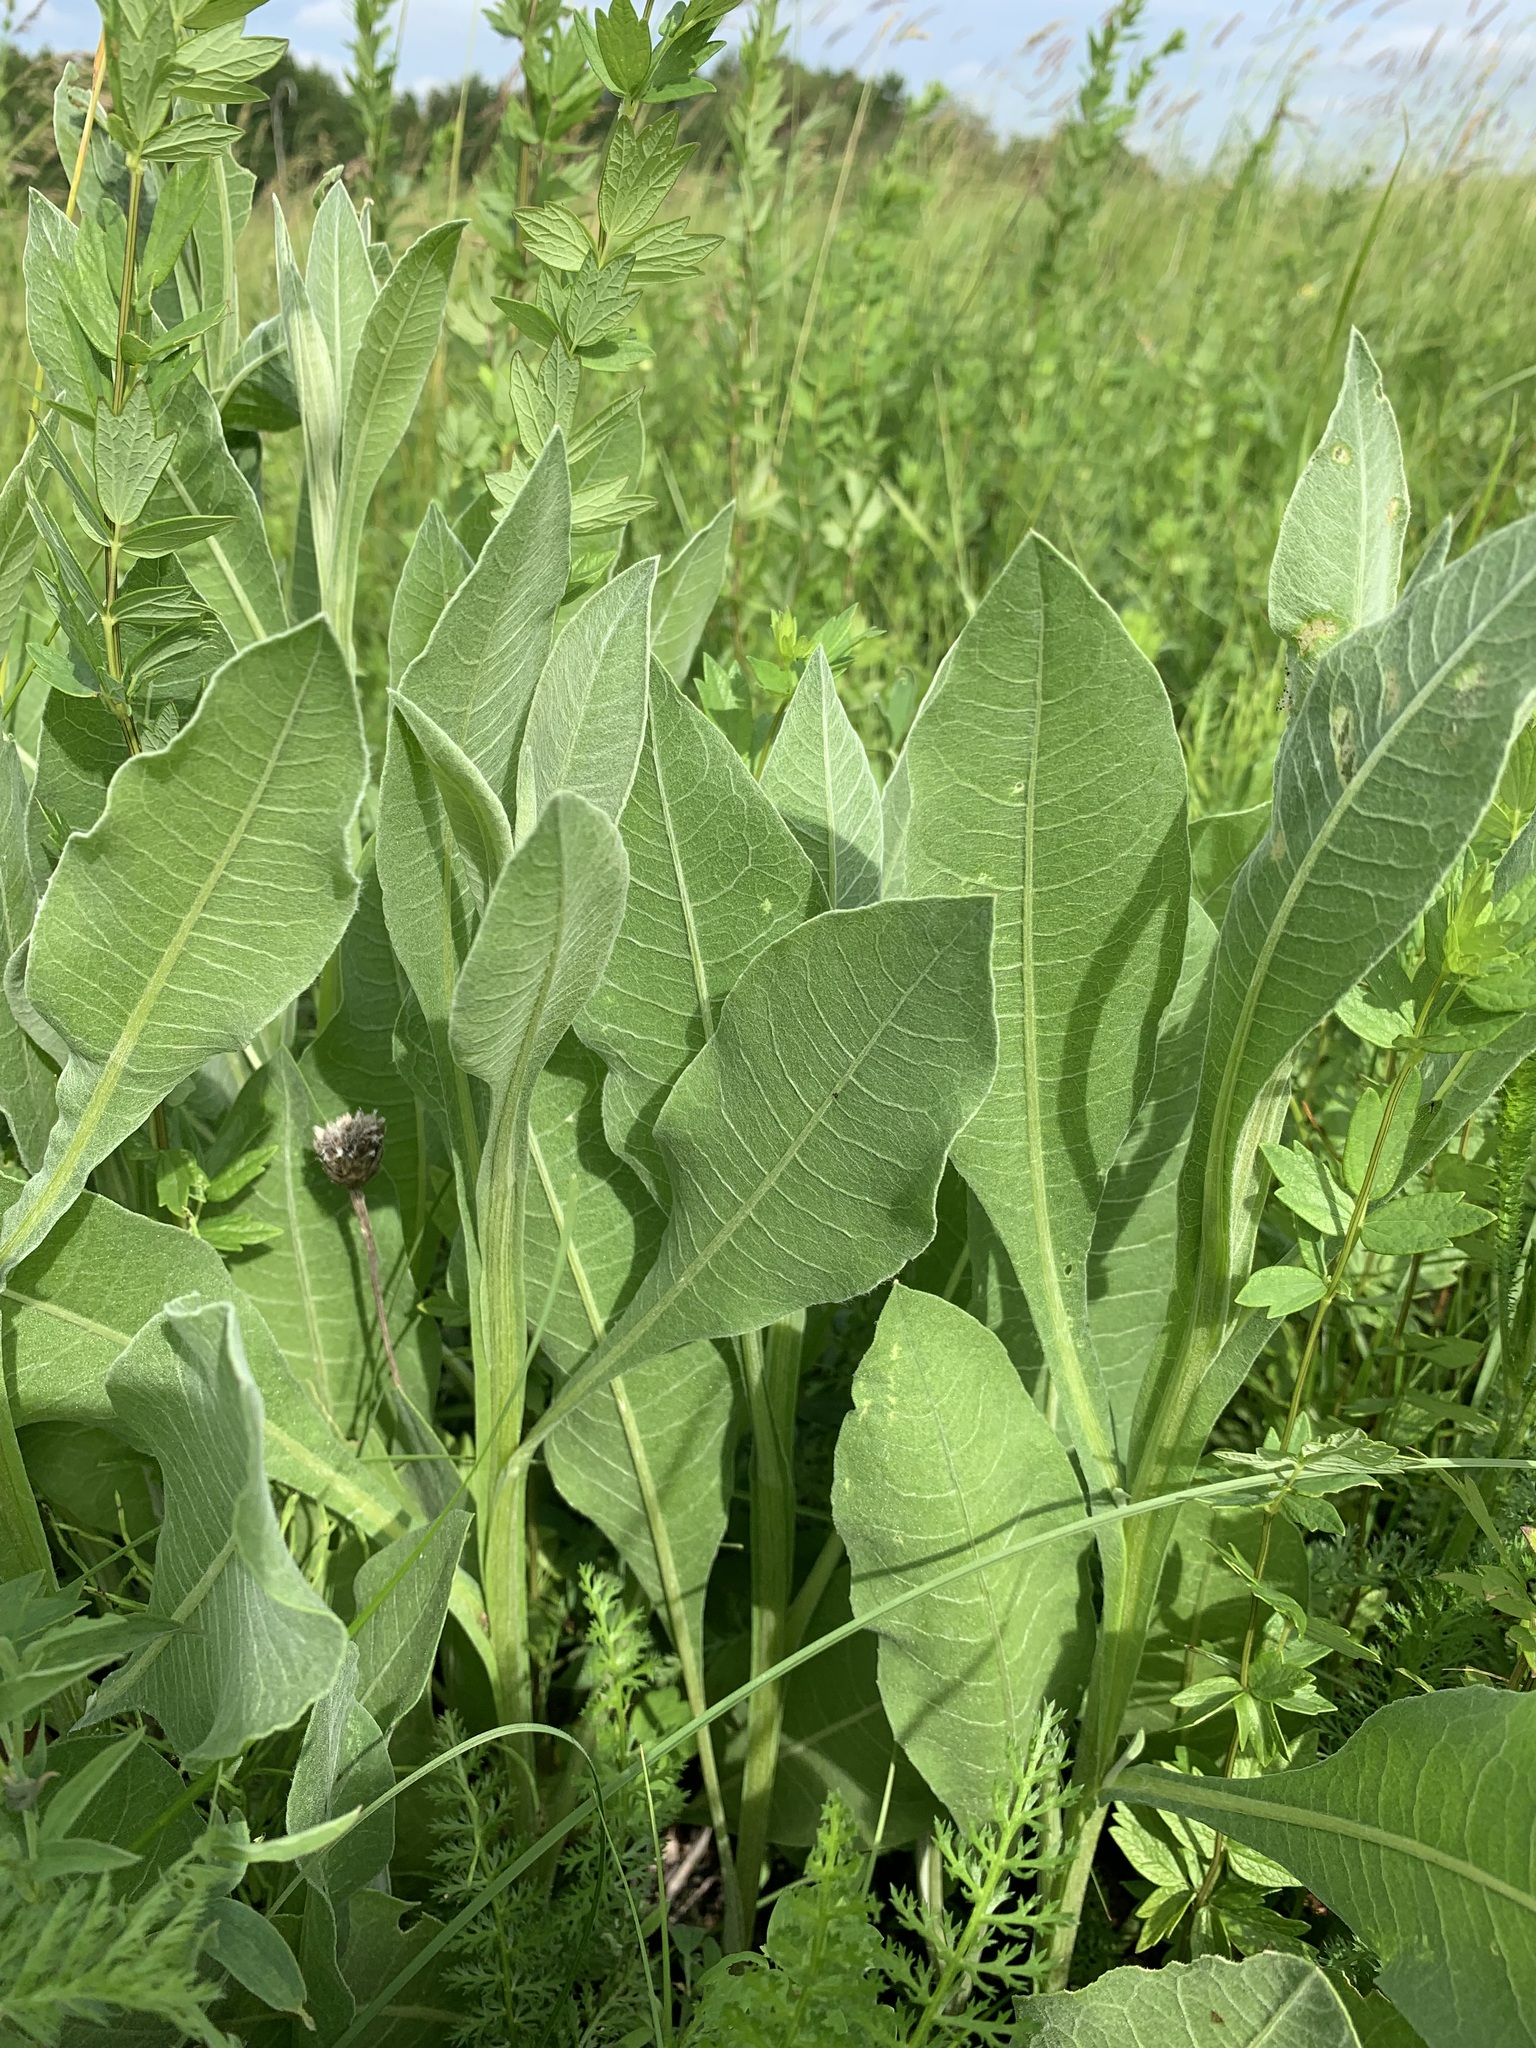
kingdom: Plantae
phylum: Tracheophyta
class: Magnoliopsida
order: Asterales
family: Asteraceae
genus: Centaurea
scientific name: Centaurea glastifolia
